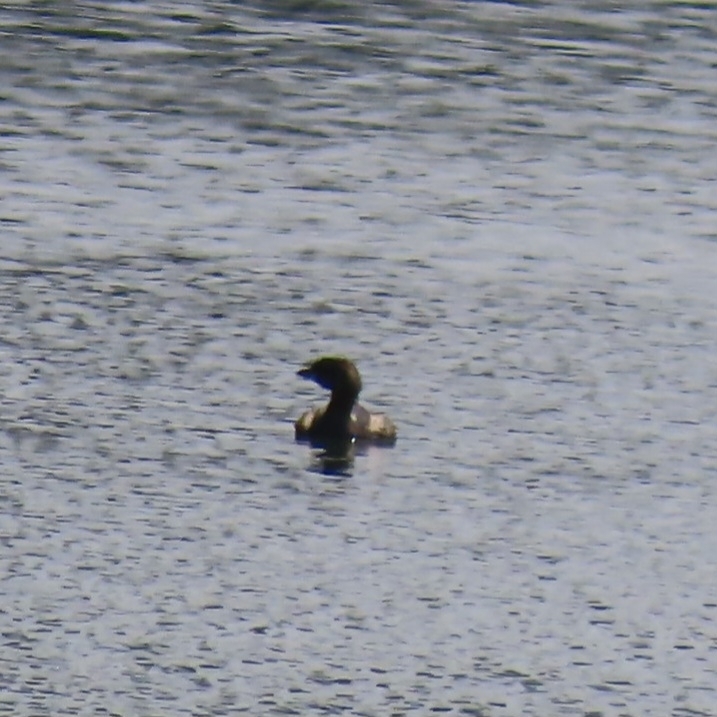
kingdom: Animalia
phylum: Chordata
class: Aves
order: Podicipediformes
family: Podicipedidae
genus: Podilymbus
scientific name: Podilymbus podiceps
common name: Pied-billed grebe
